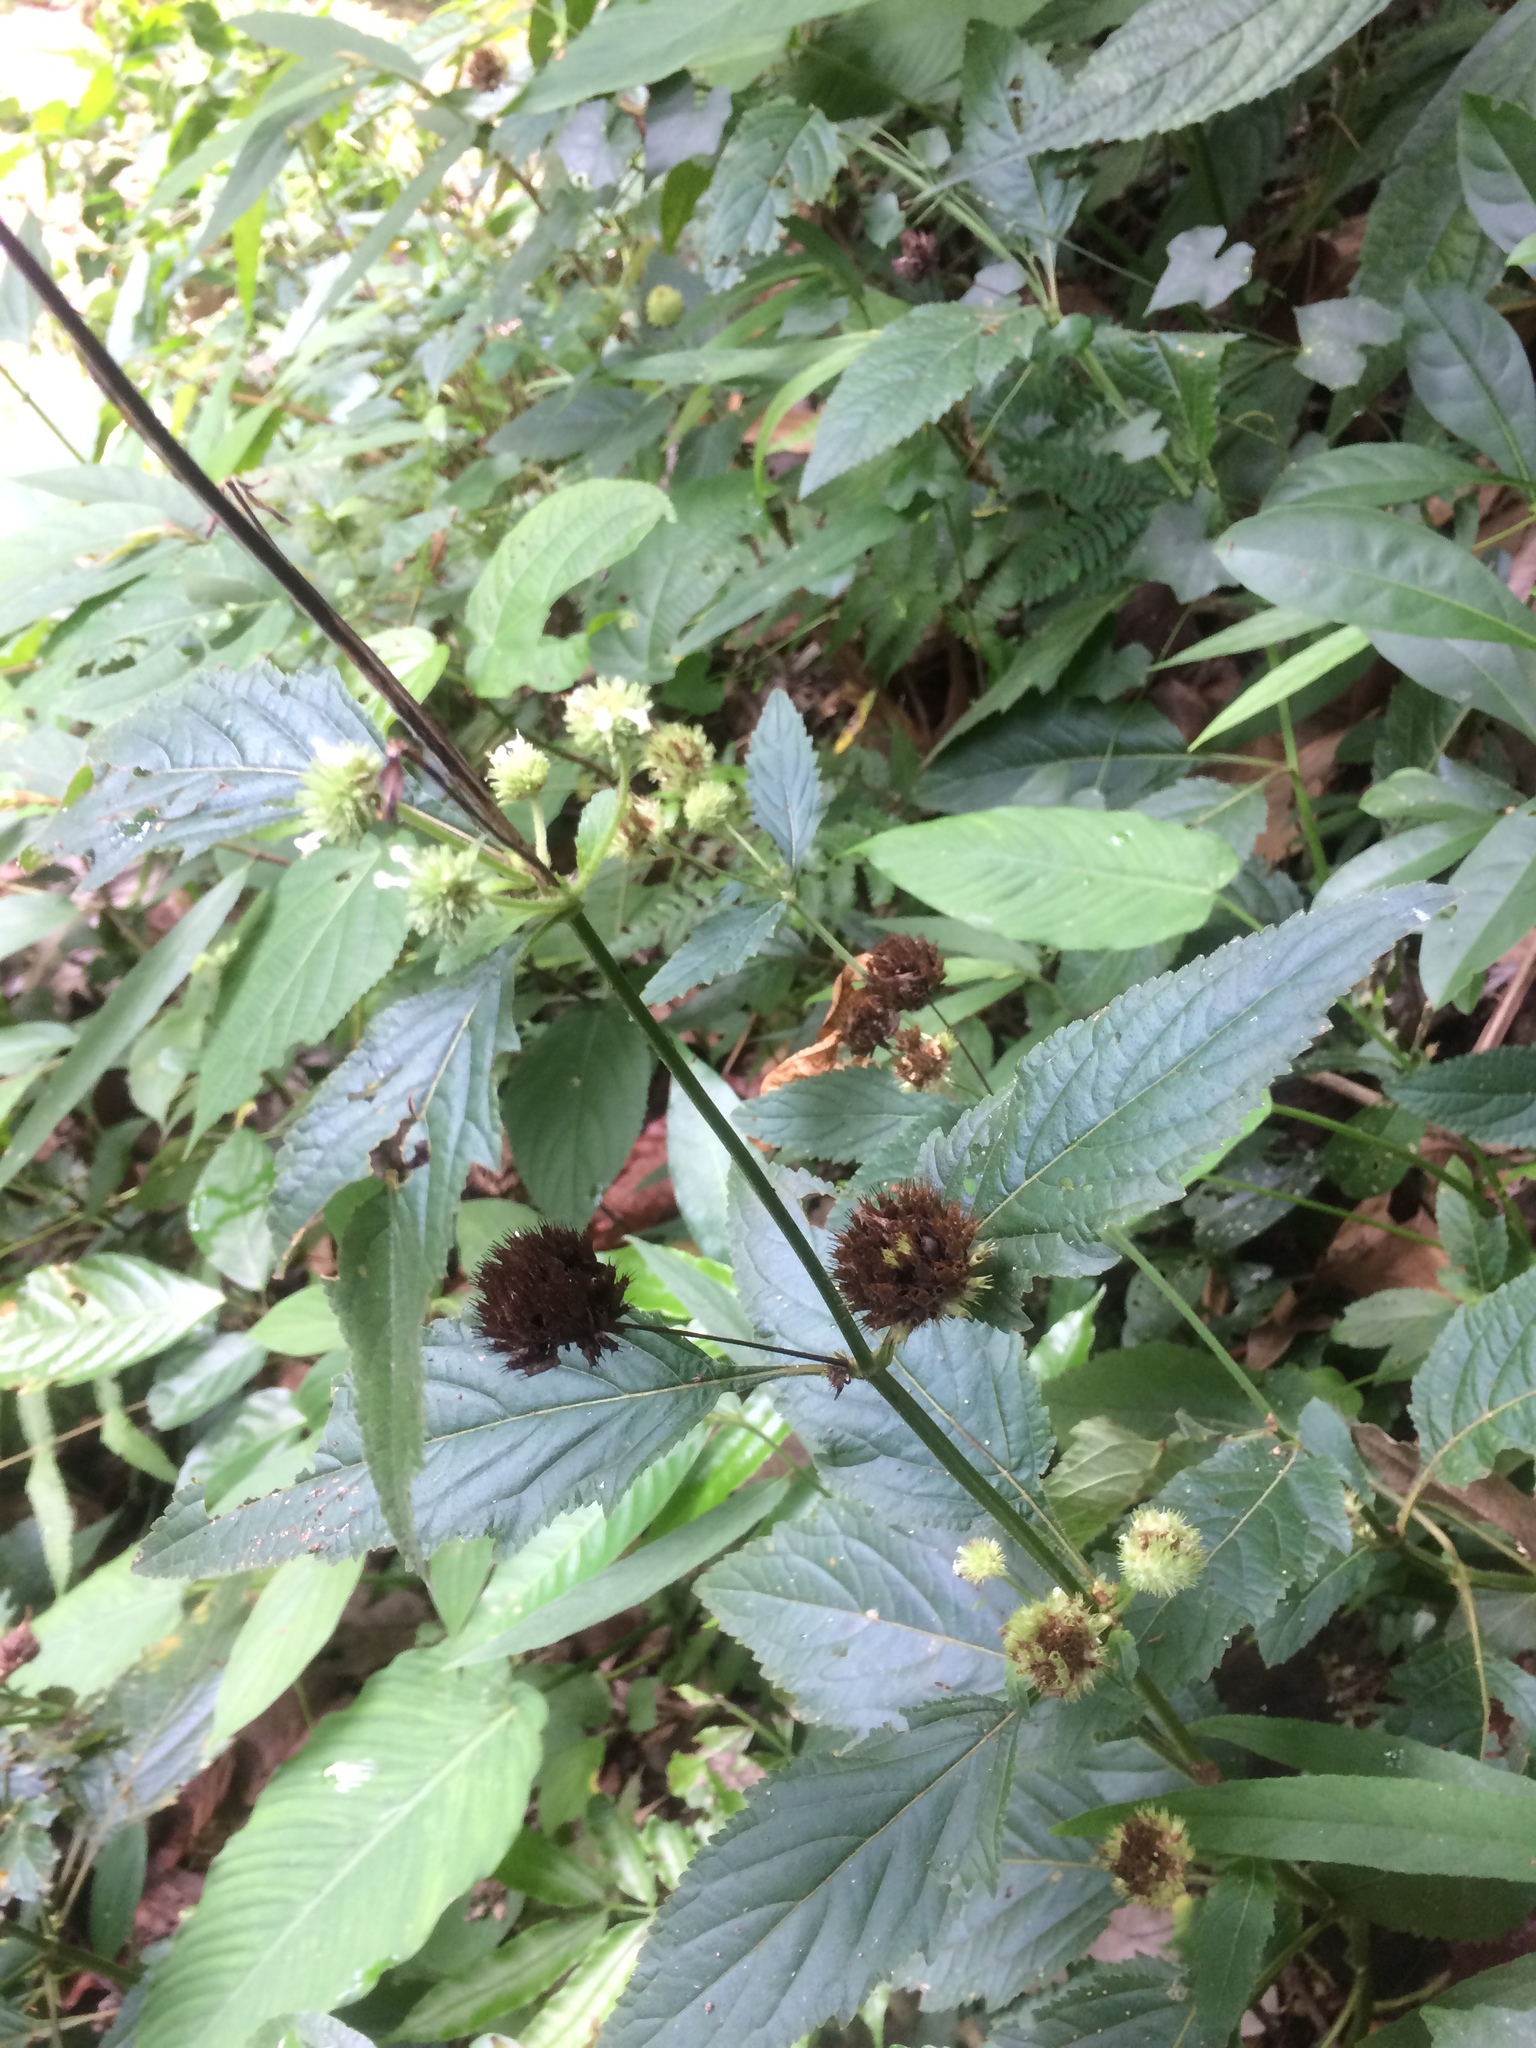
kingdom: Plantae
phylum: Tracheophyta
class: Magnoliopsida
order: Lamiales
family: Lamiaceae
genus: Hyptis
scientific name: Hyptis capitata
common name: False ironwort
